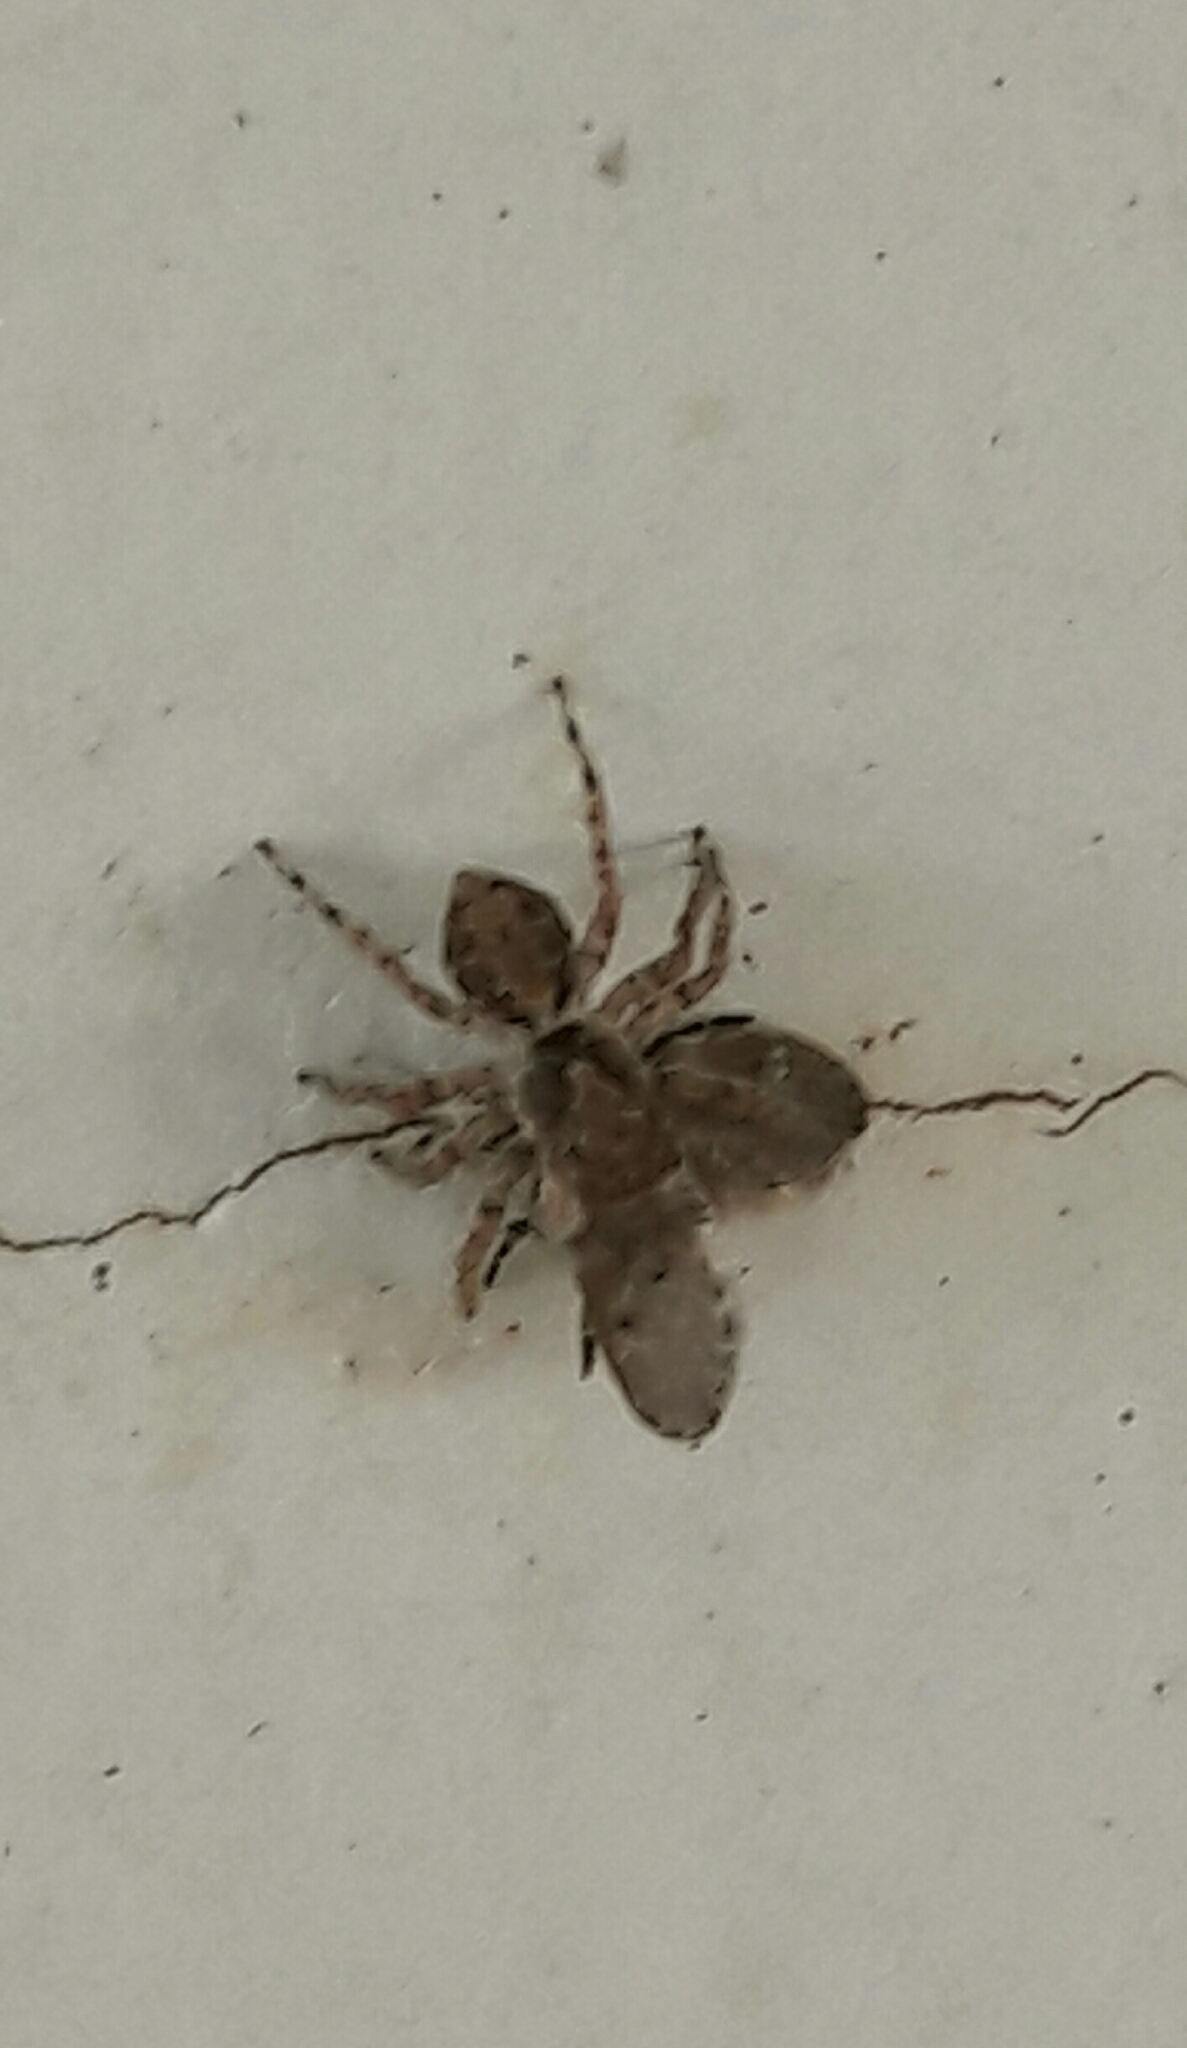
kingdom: Animalia
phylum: Arthropoda
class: Arachnida
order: Araneae
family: Salticidae
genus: Marma
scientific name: Marma nigritarsis
